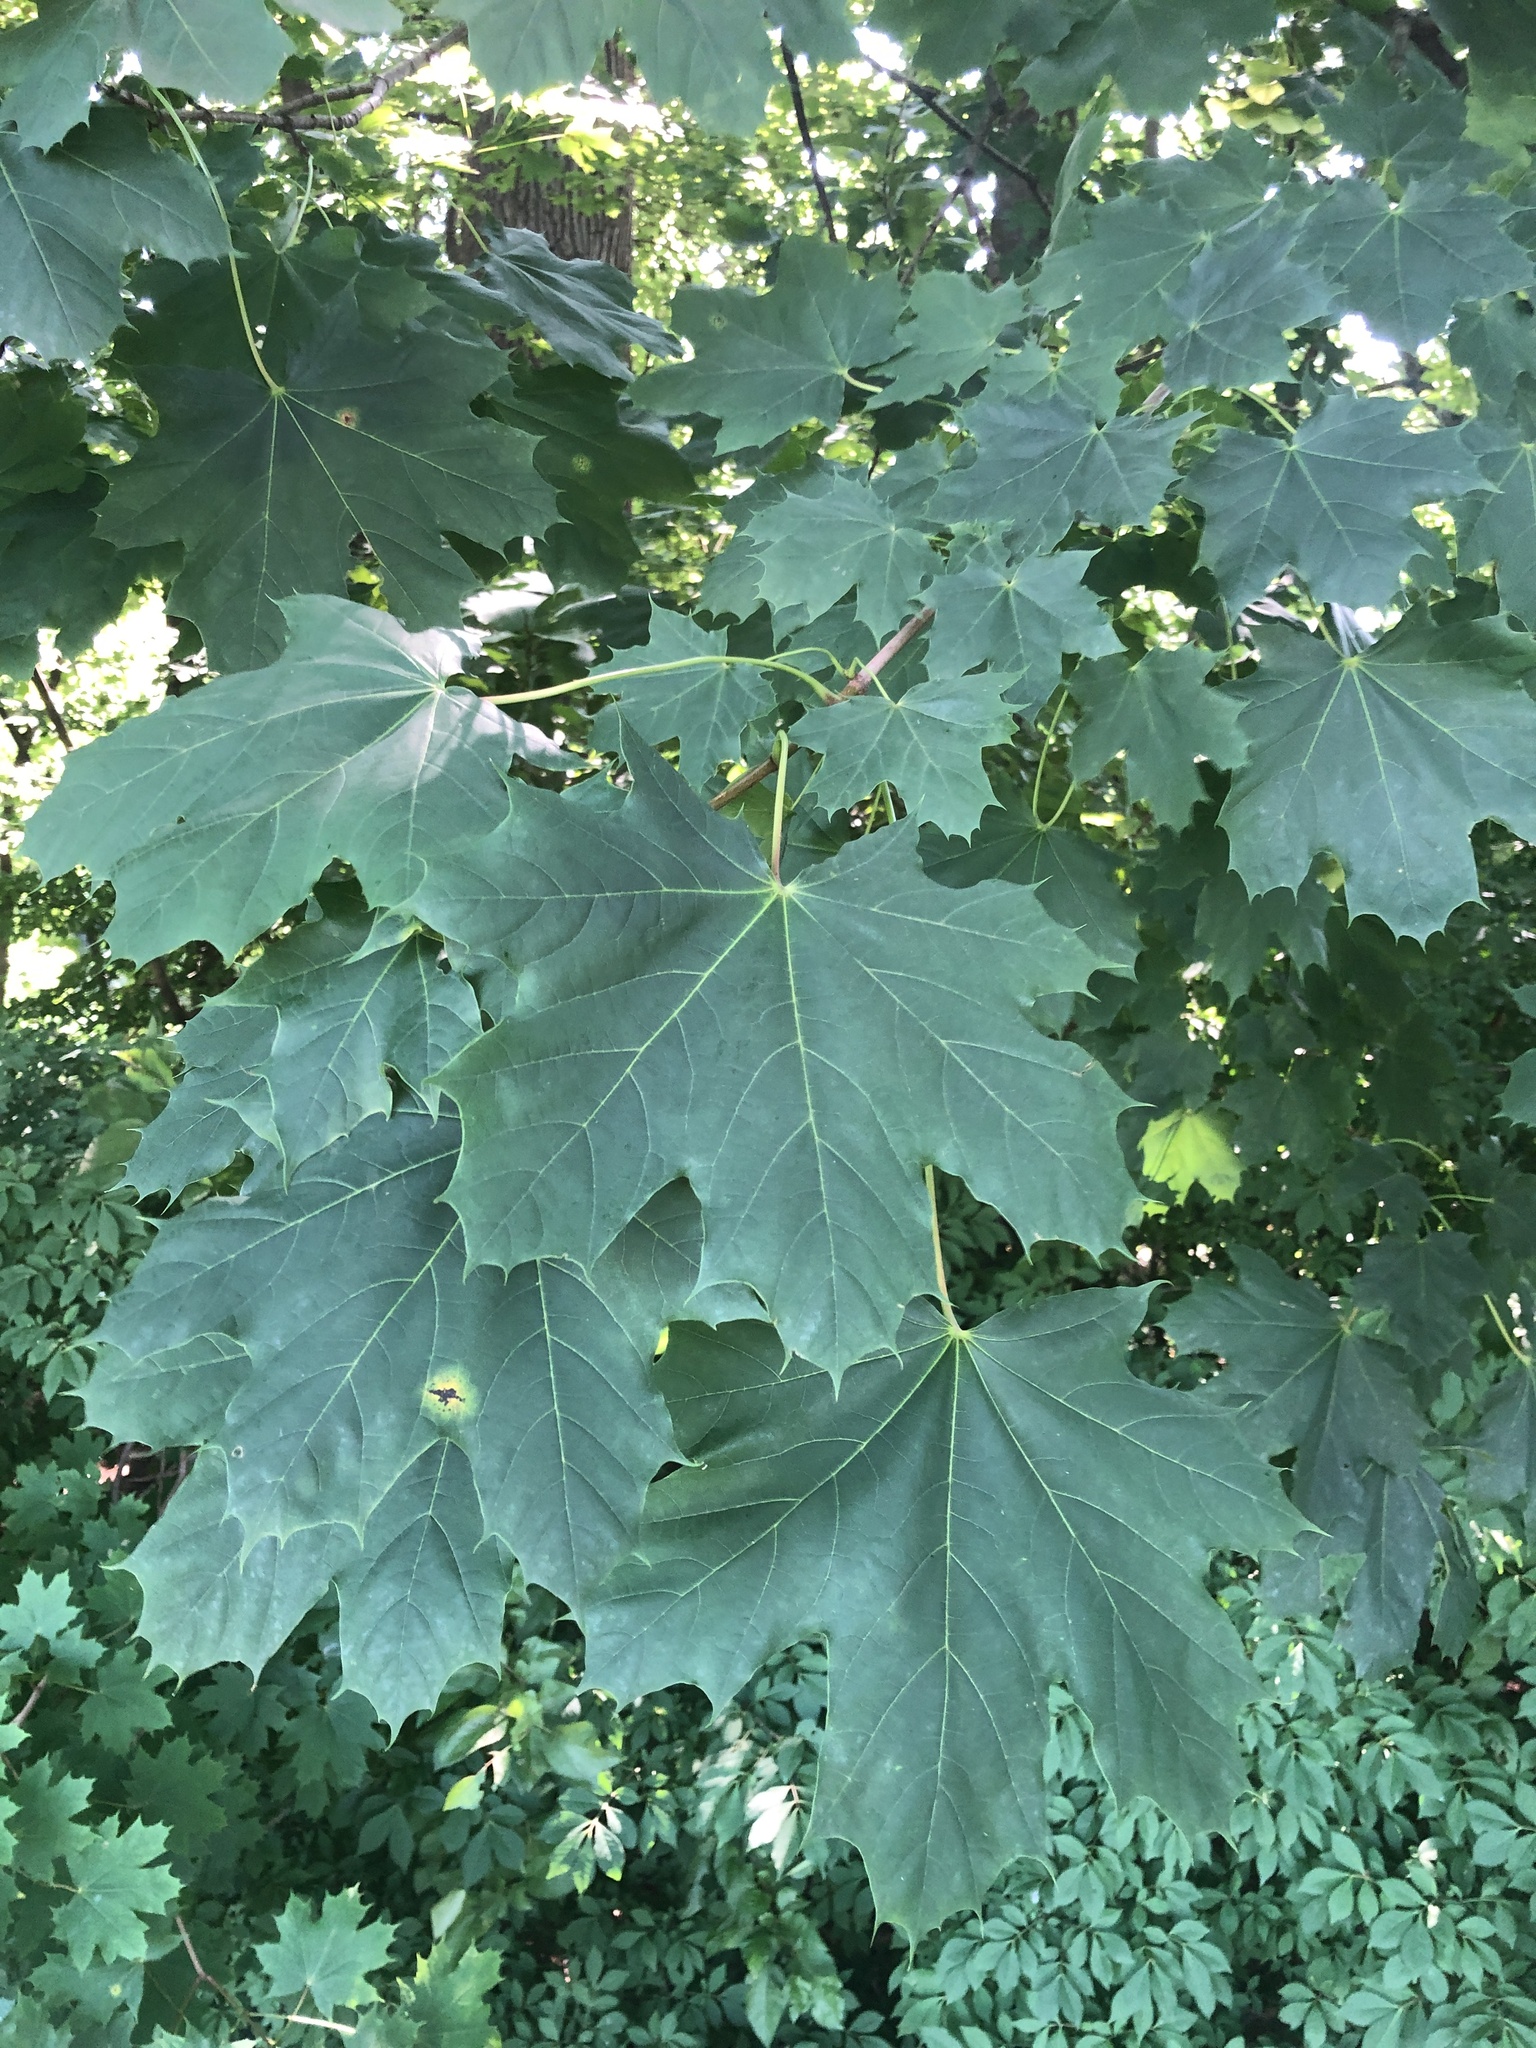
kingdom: Plantae
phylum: Tracheophyta
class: Magnoliopsida
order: Sapindales
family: Sapindaceae
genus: Acer
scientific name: Acer platanoides
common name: Norway maple
